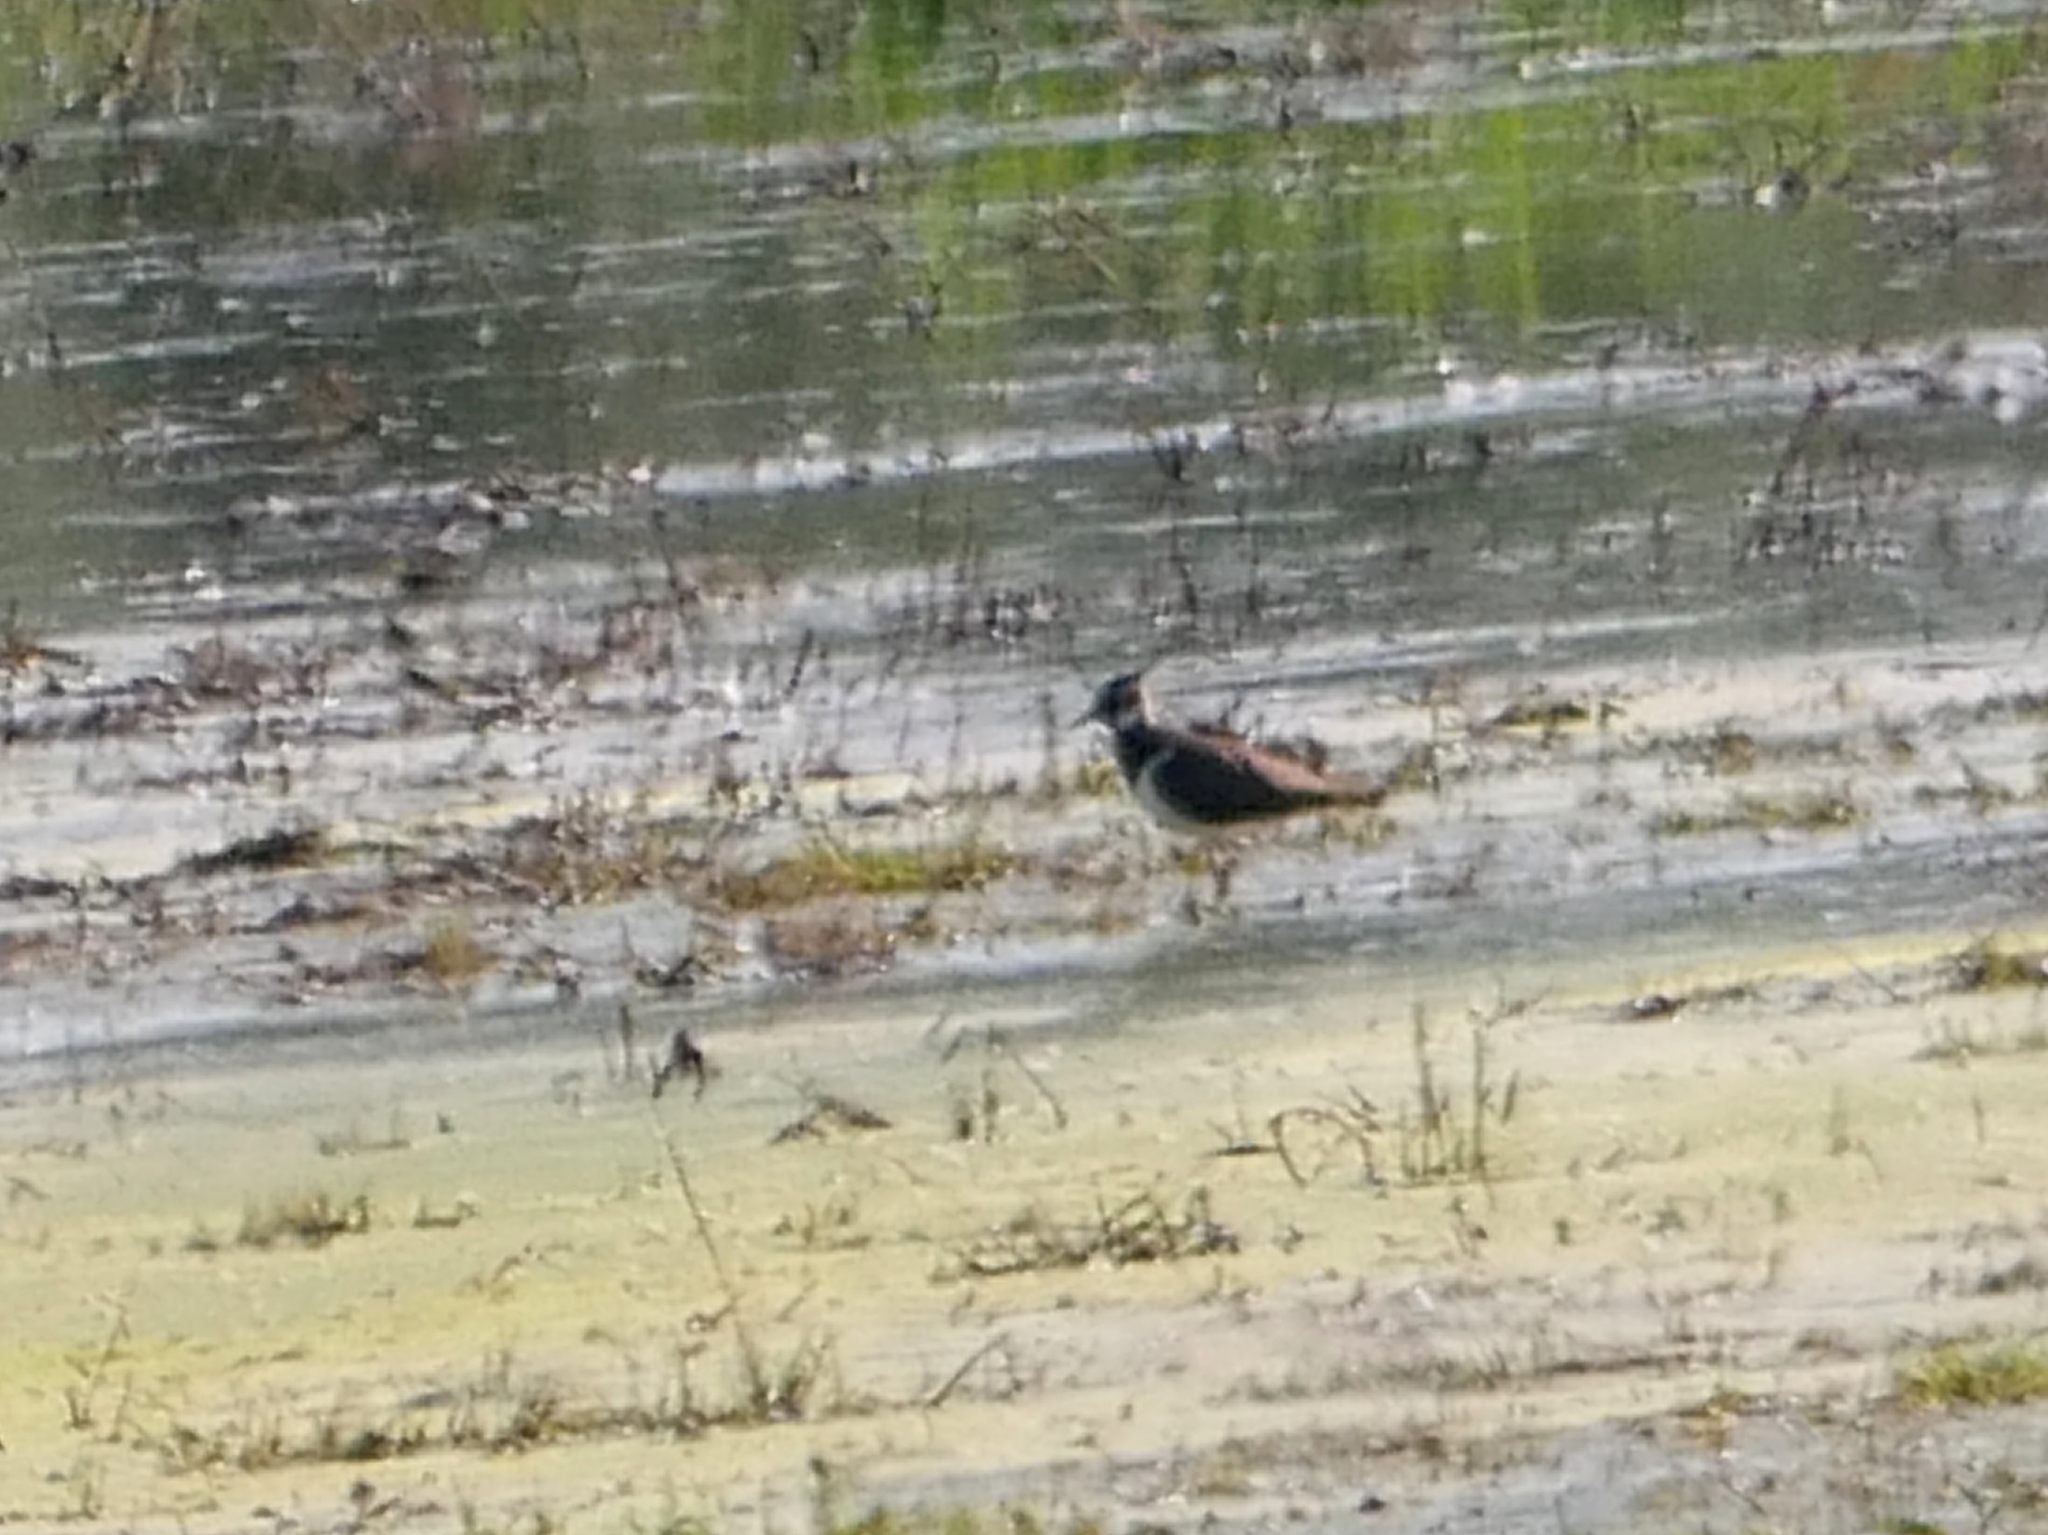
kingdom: Animalia
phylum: Chordata
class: Aves
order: Charadriiformes
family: Charadriidae
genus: Vanellus
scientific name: Vanellus vanellus
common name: Northern lapwing
